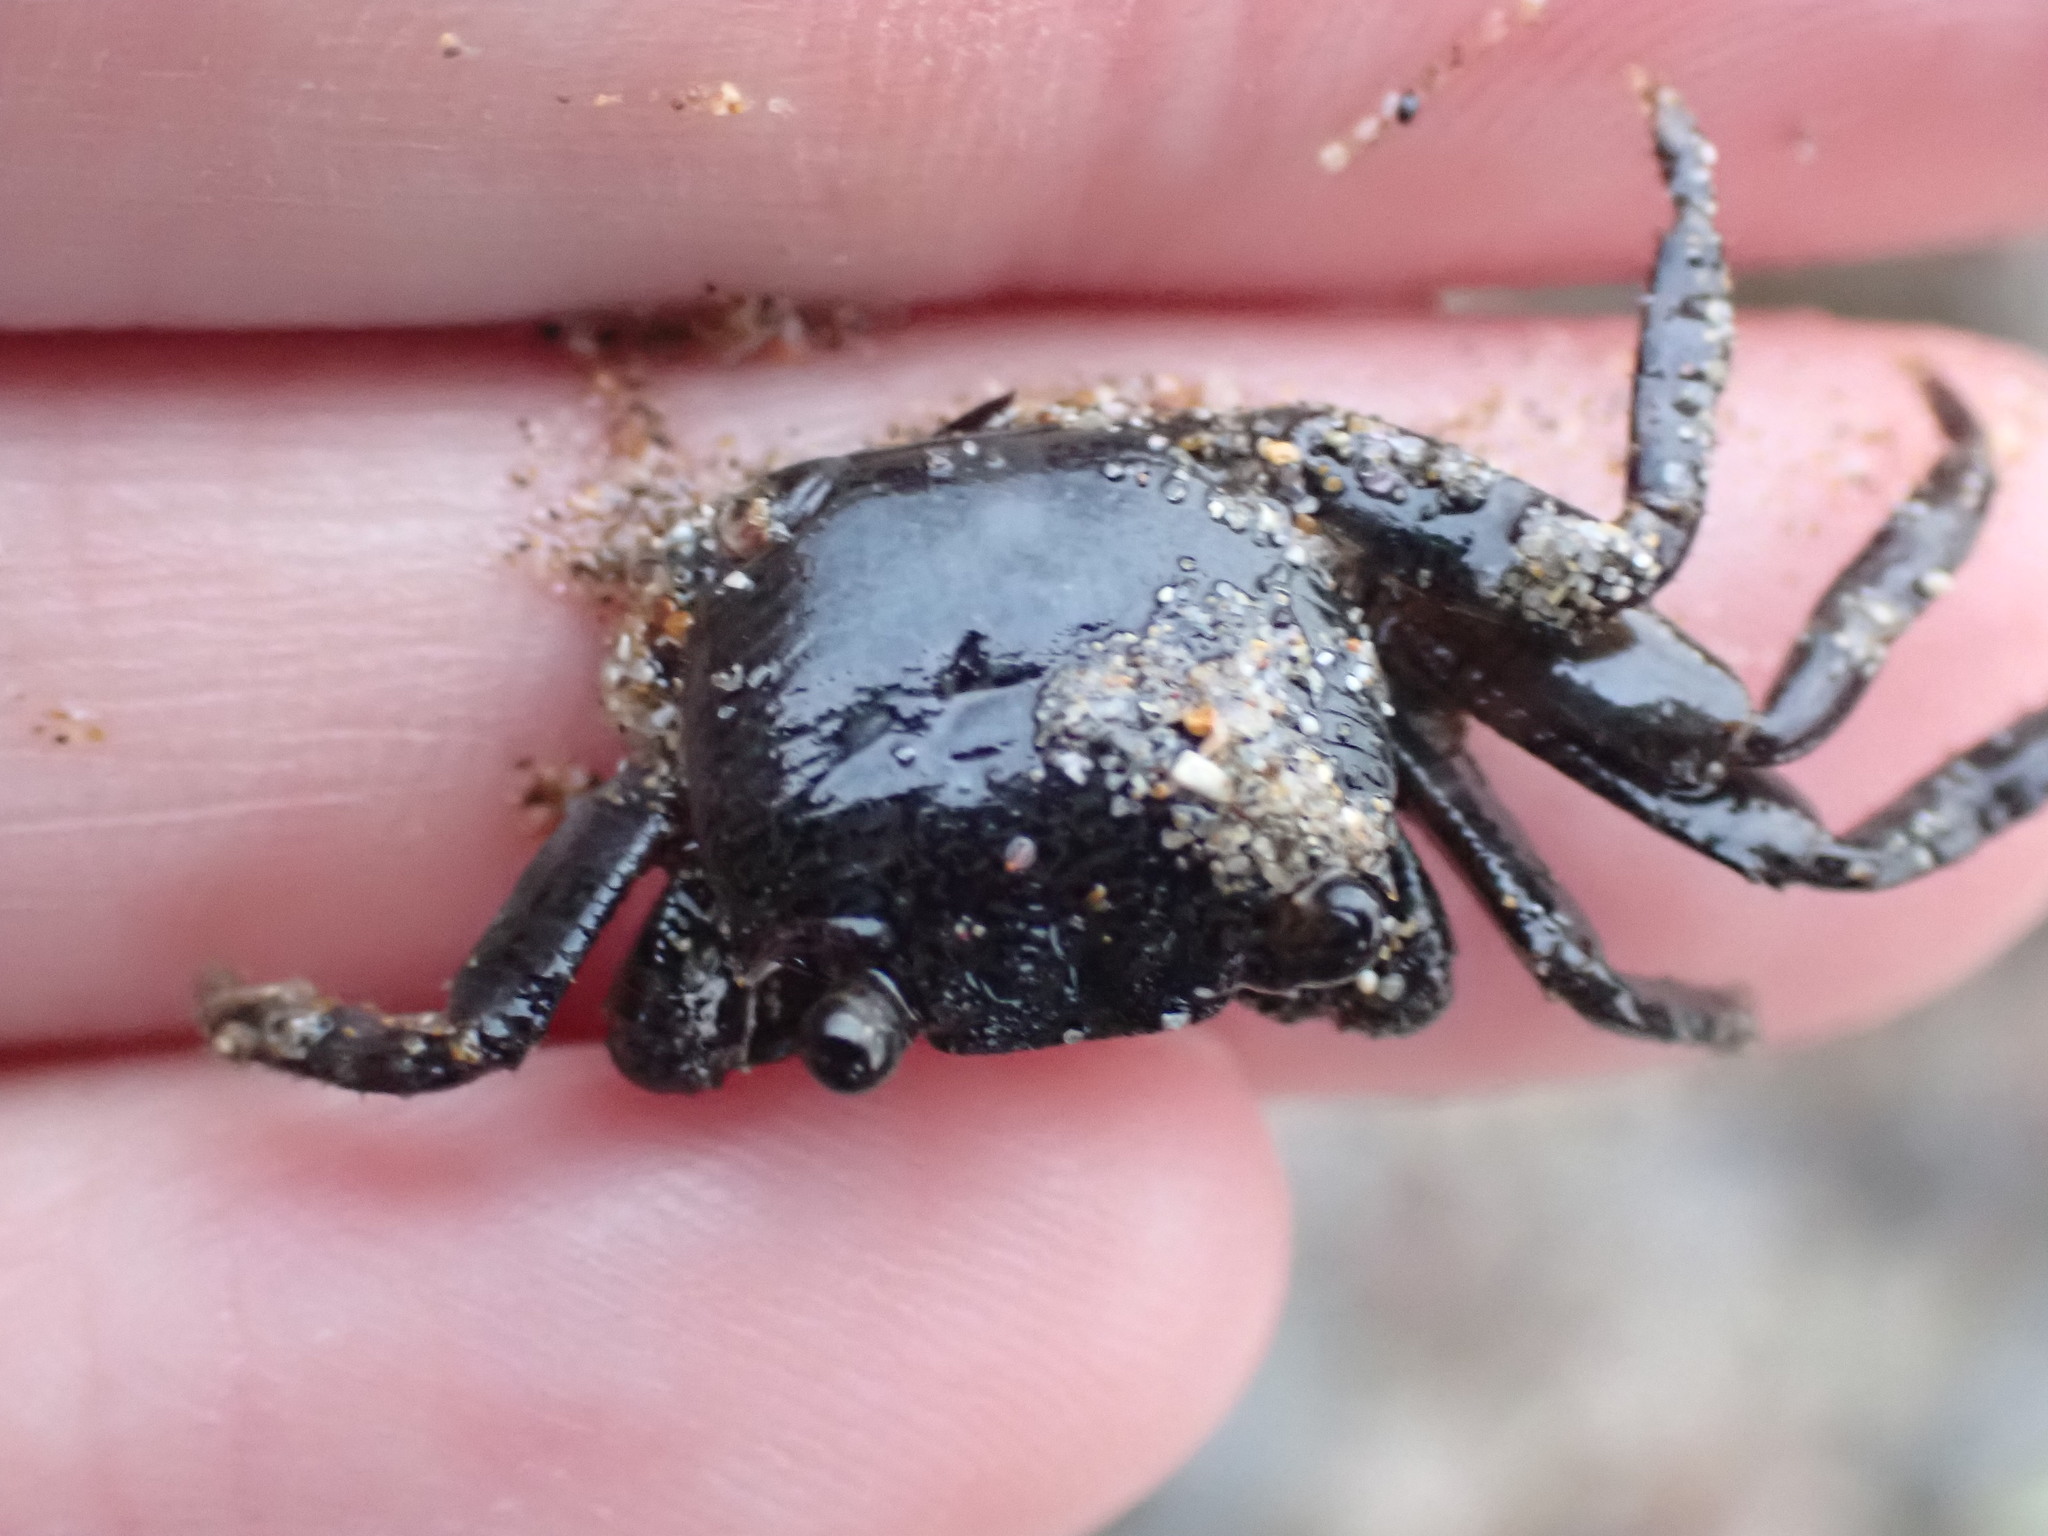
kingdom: Animalia
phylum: Arthropoda
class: Malacostraca
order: Decapoda
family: Grapsidae
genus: Leptograpsus
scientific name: Leptograpsus variegatus
